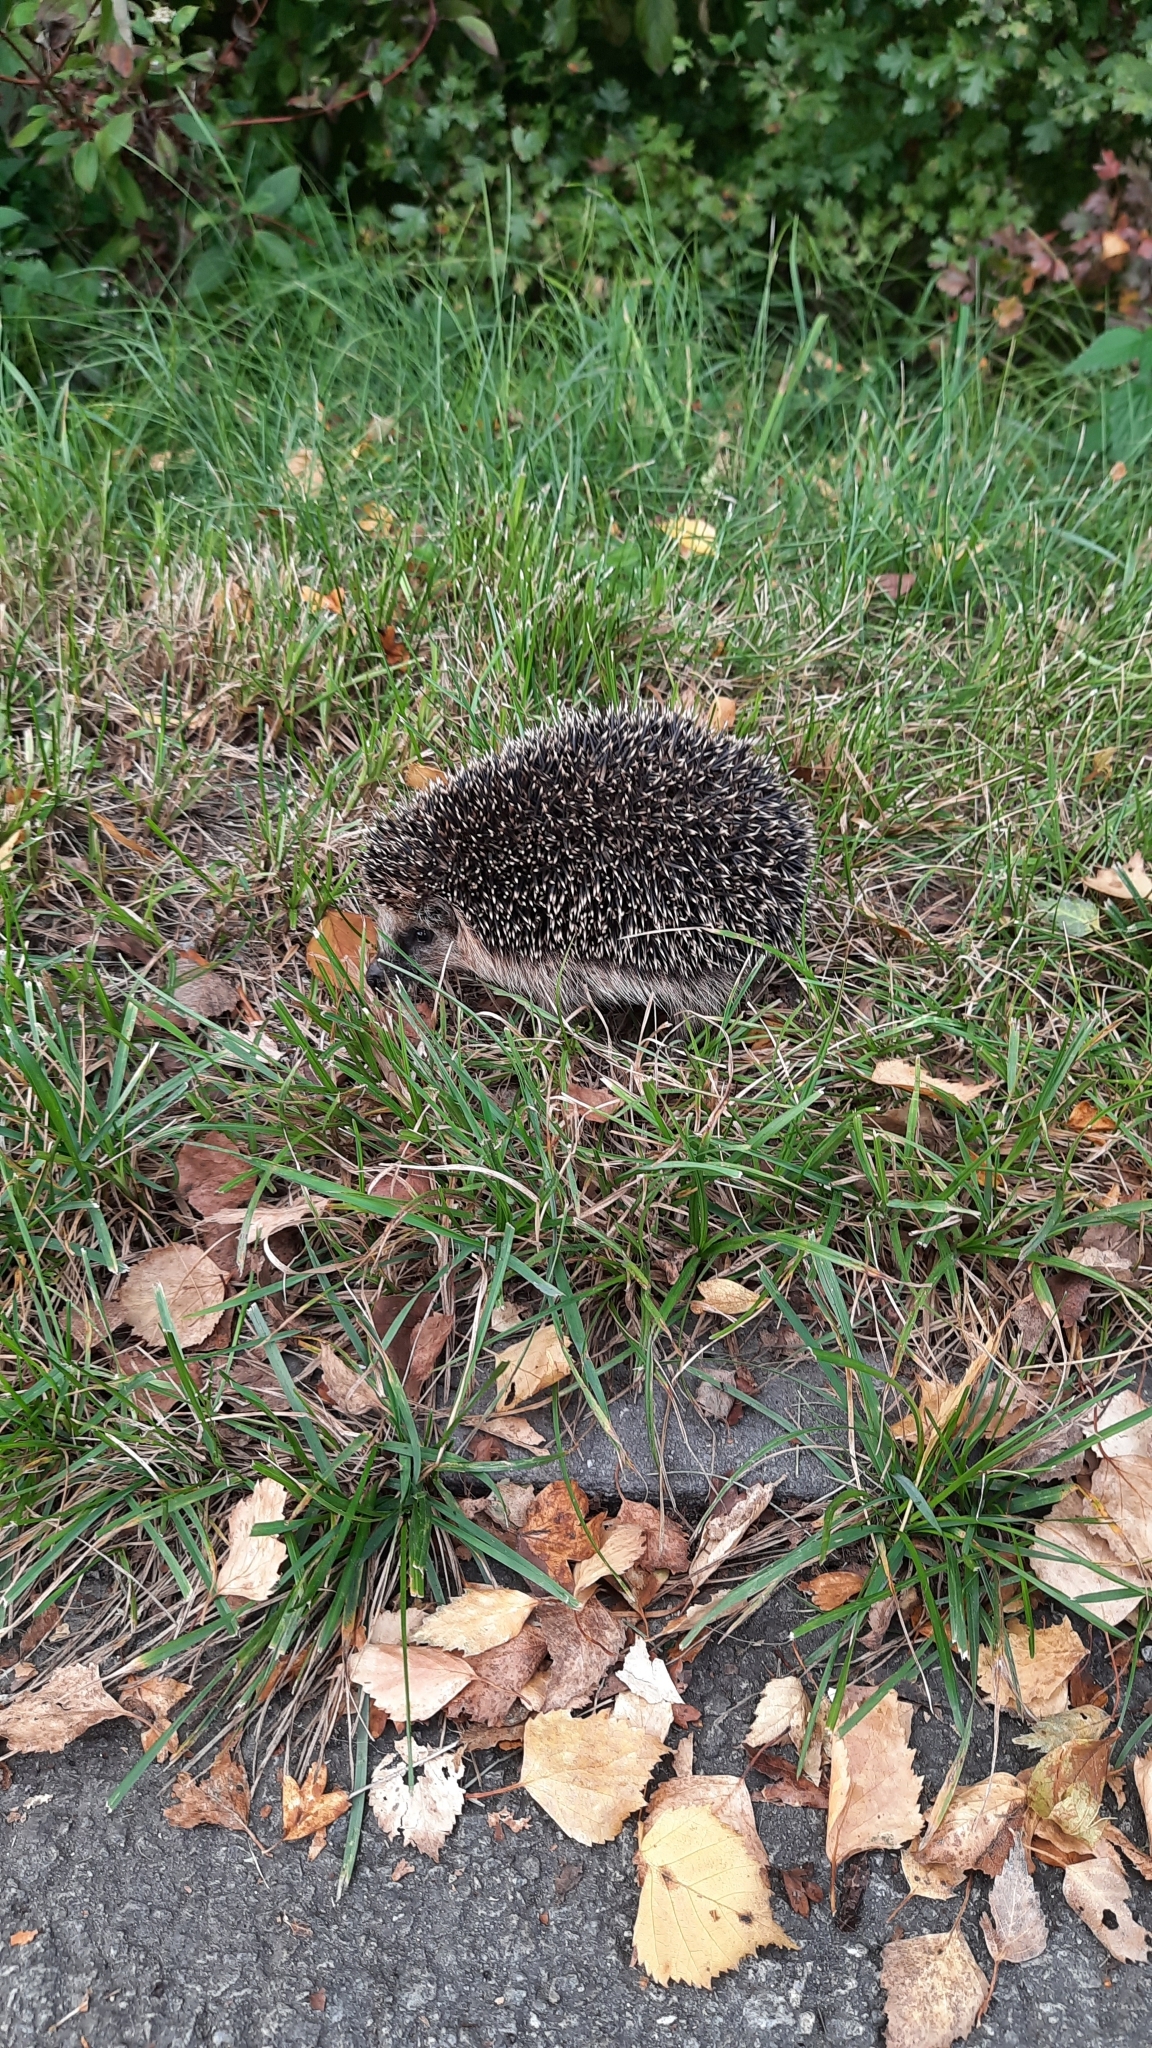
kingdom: Animalia
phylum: Chordata
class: Mammalia
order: Erinaceomorpha
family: Erinaceidae
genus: Erinaceus
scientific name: Erinaceus europaeus
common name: West european hedgehog
